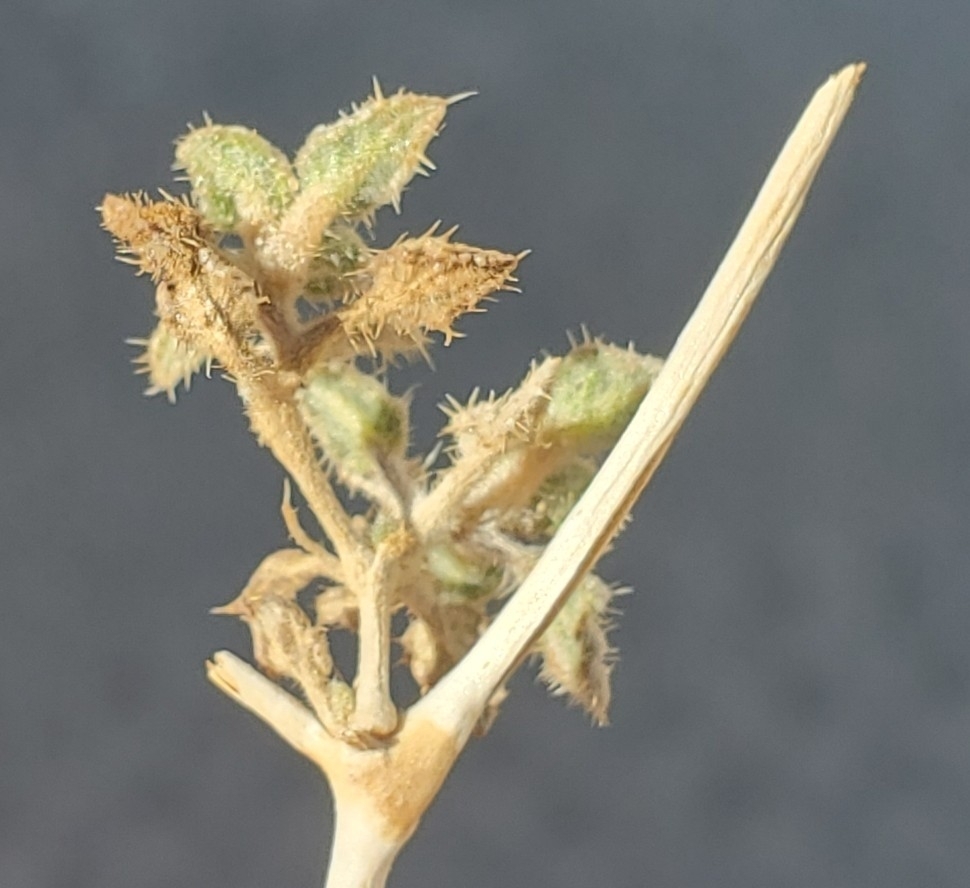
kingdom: Plantae
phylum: Tracheophyta
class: Magnoliopsida
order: Boraginales
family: Ehretiaceae
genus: Tiquilia
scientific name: Tiquilia palmeri
